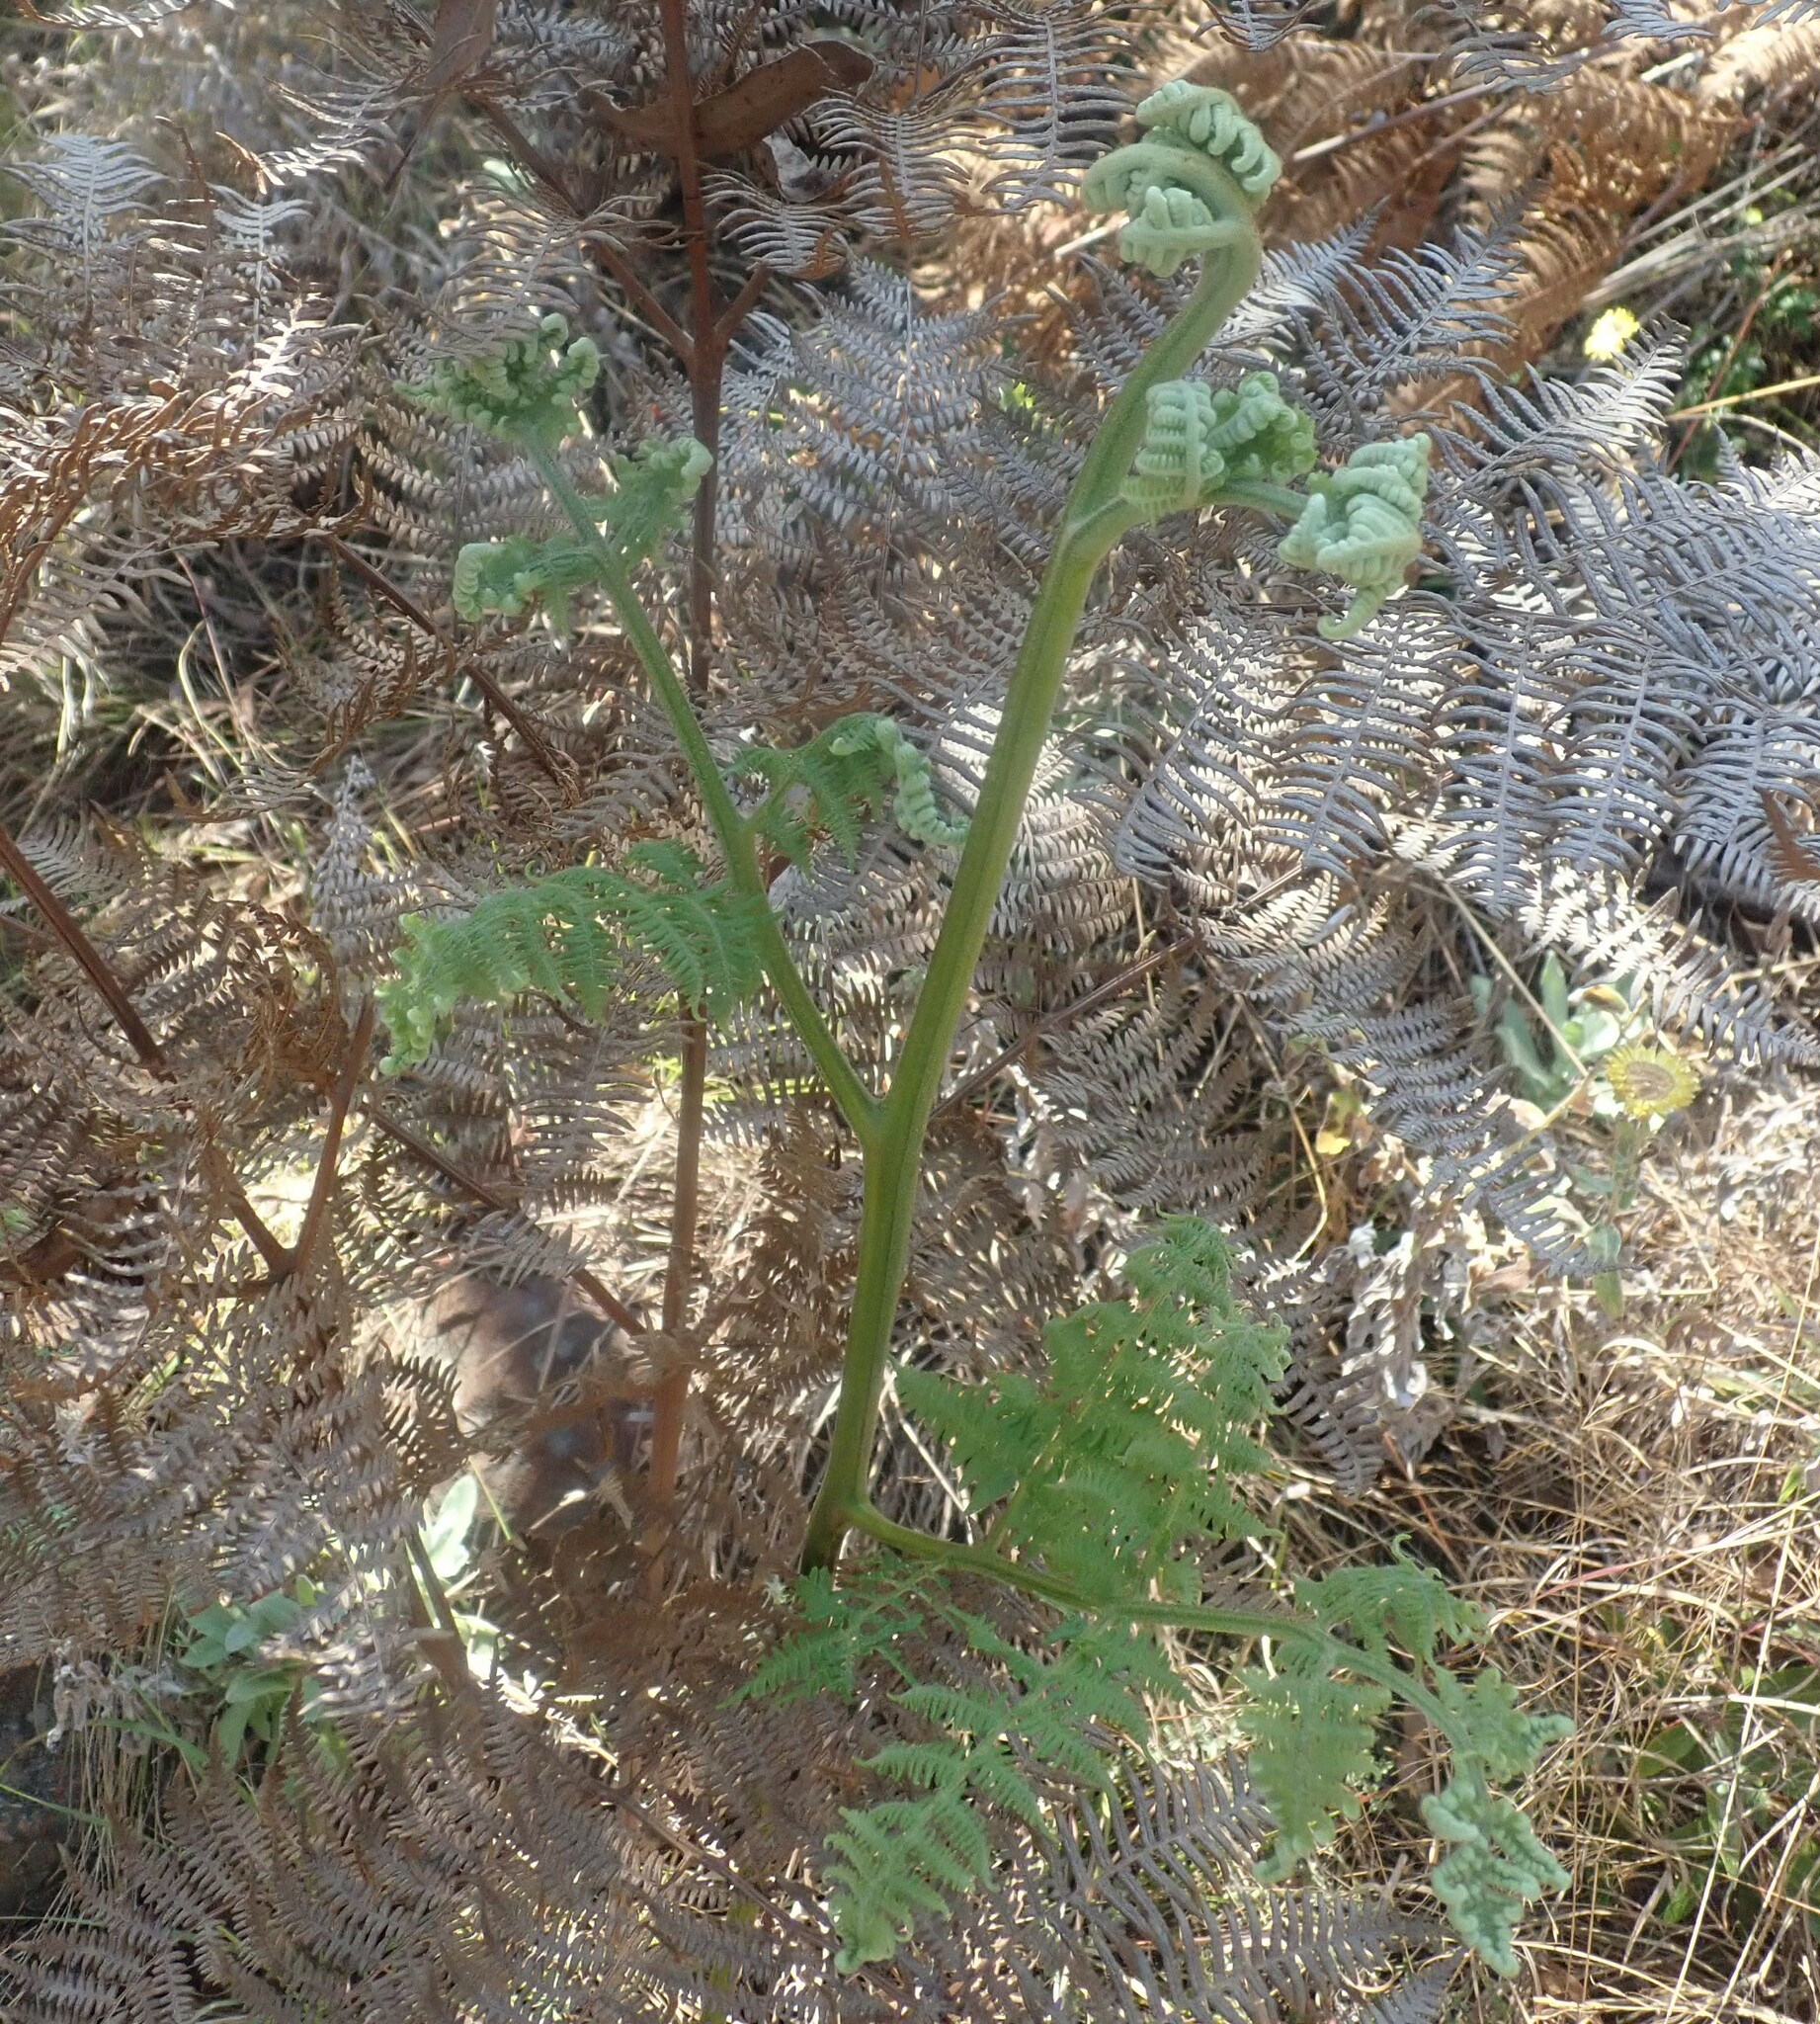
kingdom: Plantae
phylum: Tracheophyta
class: Polypodiopsida
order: Polypodiales
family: Dennstaedtiaceae
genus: Pteridium
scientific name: Pteridium aquilinum
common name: Bracken
